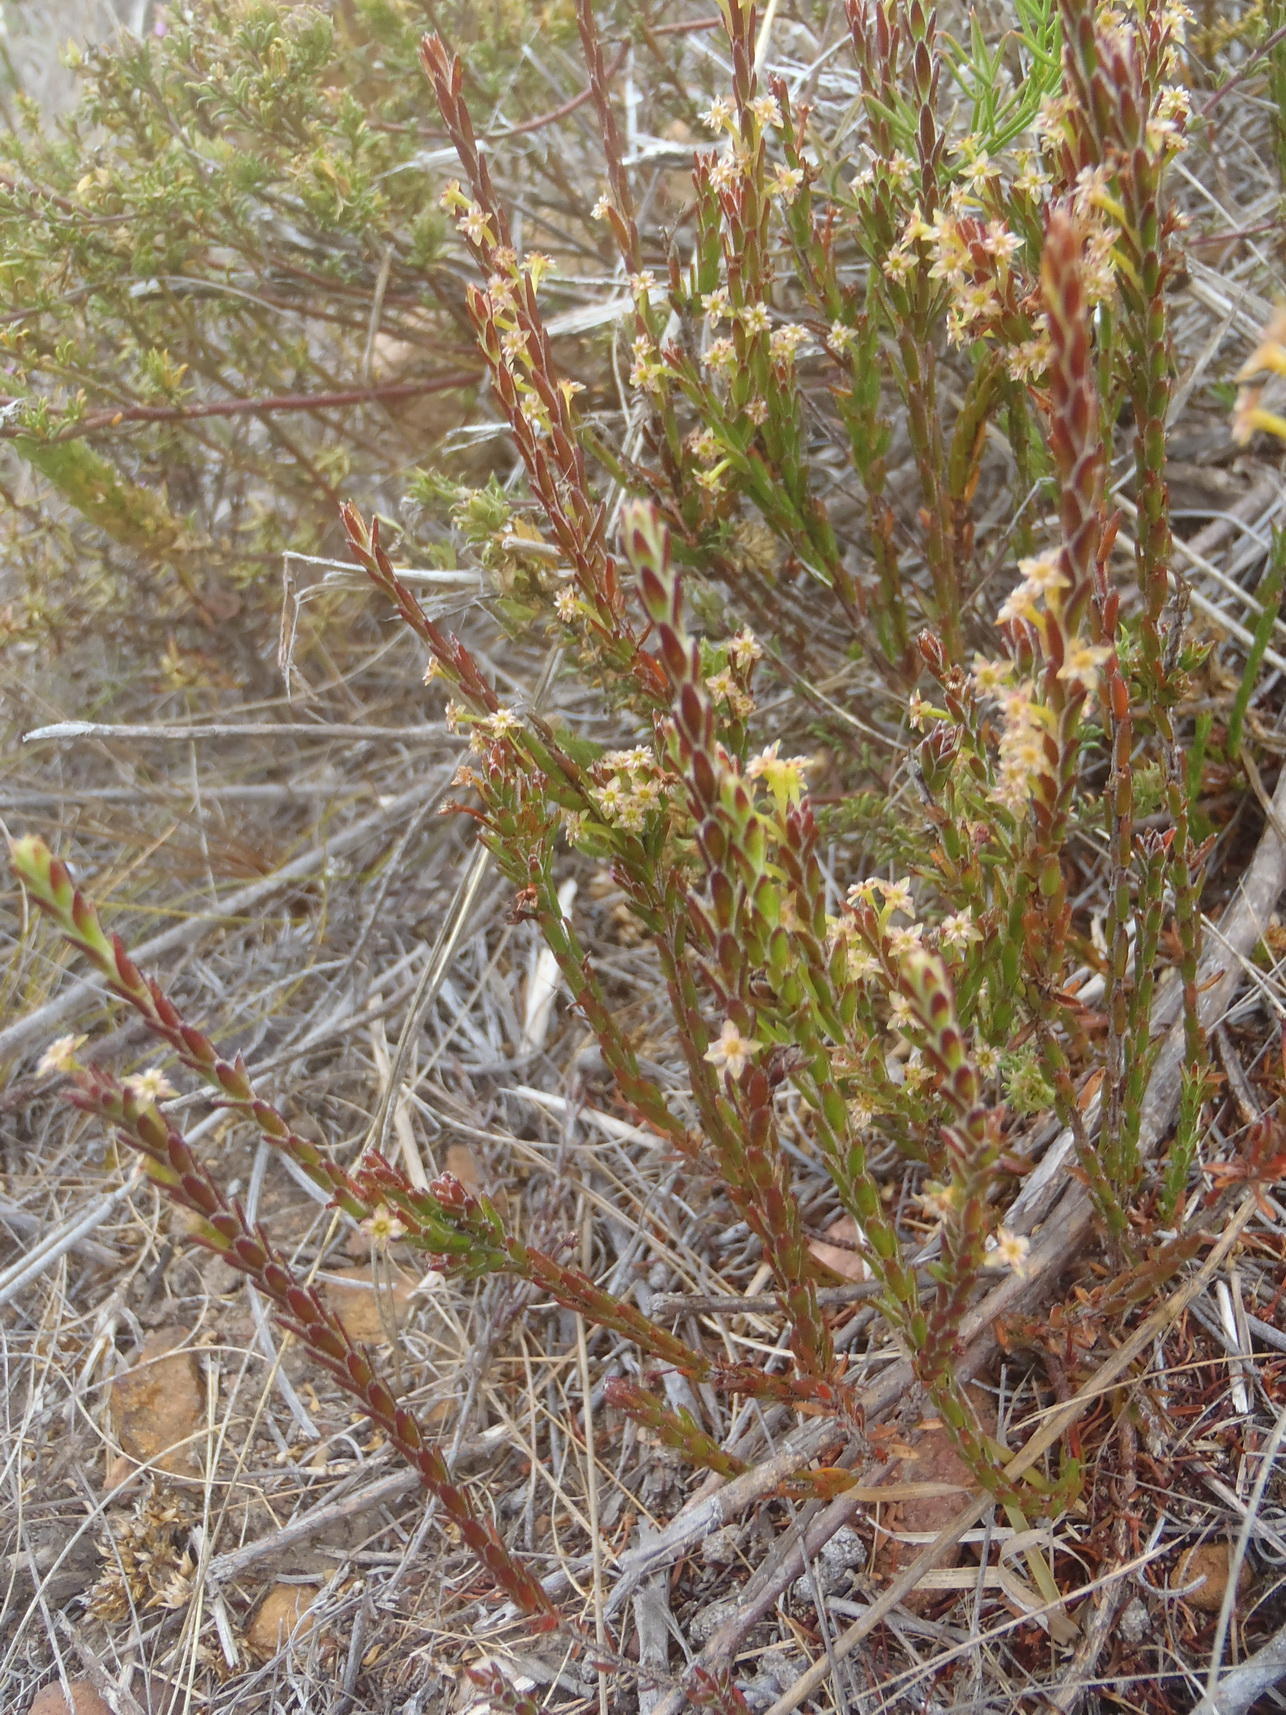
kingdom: Plantae
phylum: Tracheophyta
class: Magnoliopsida
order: Malvales
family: Thymelaeaceae
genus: Struthiola
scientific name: Struthiola parviflora
